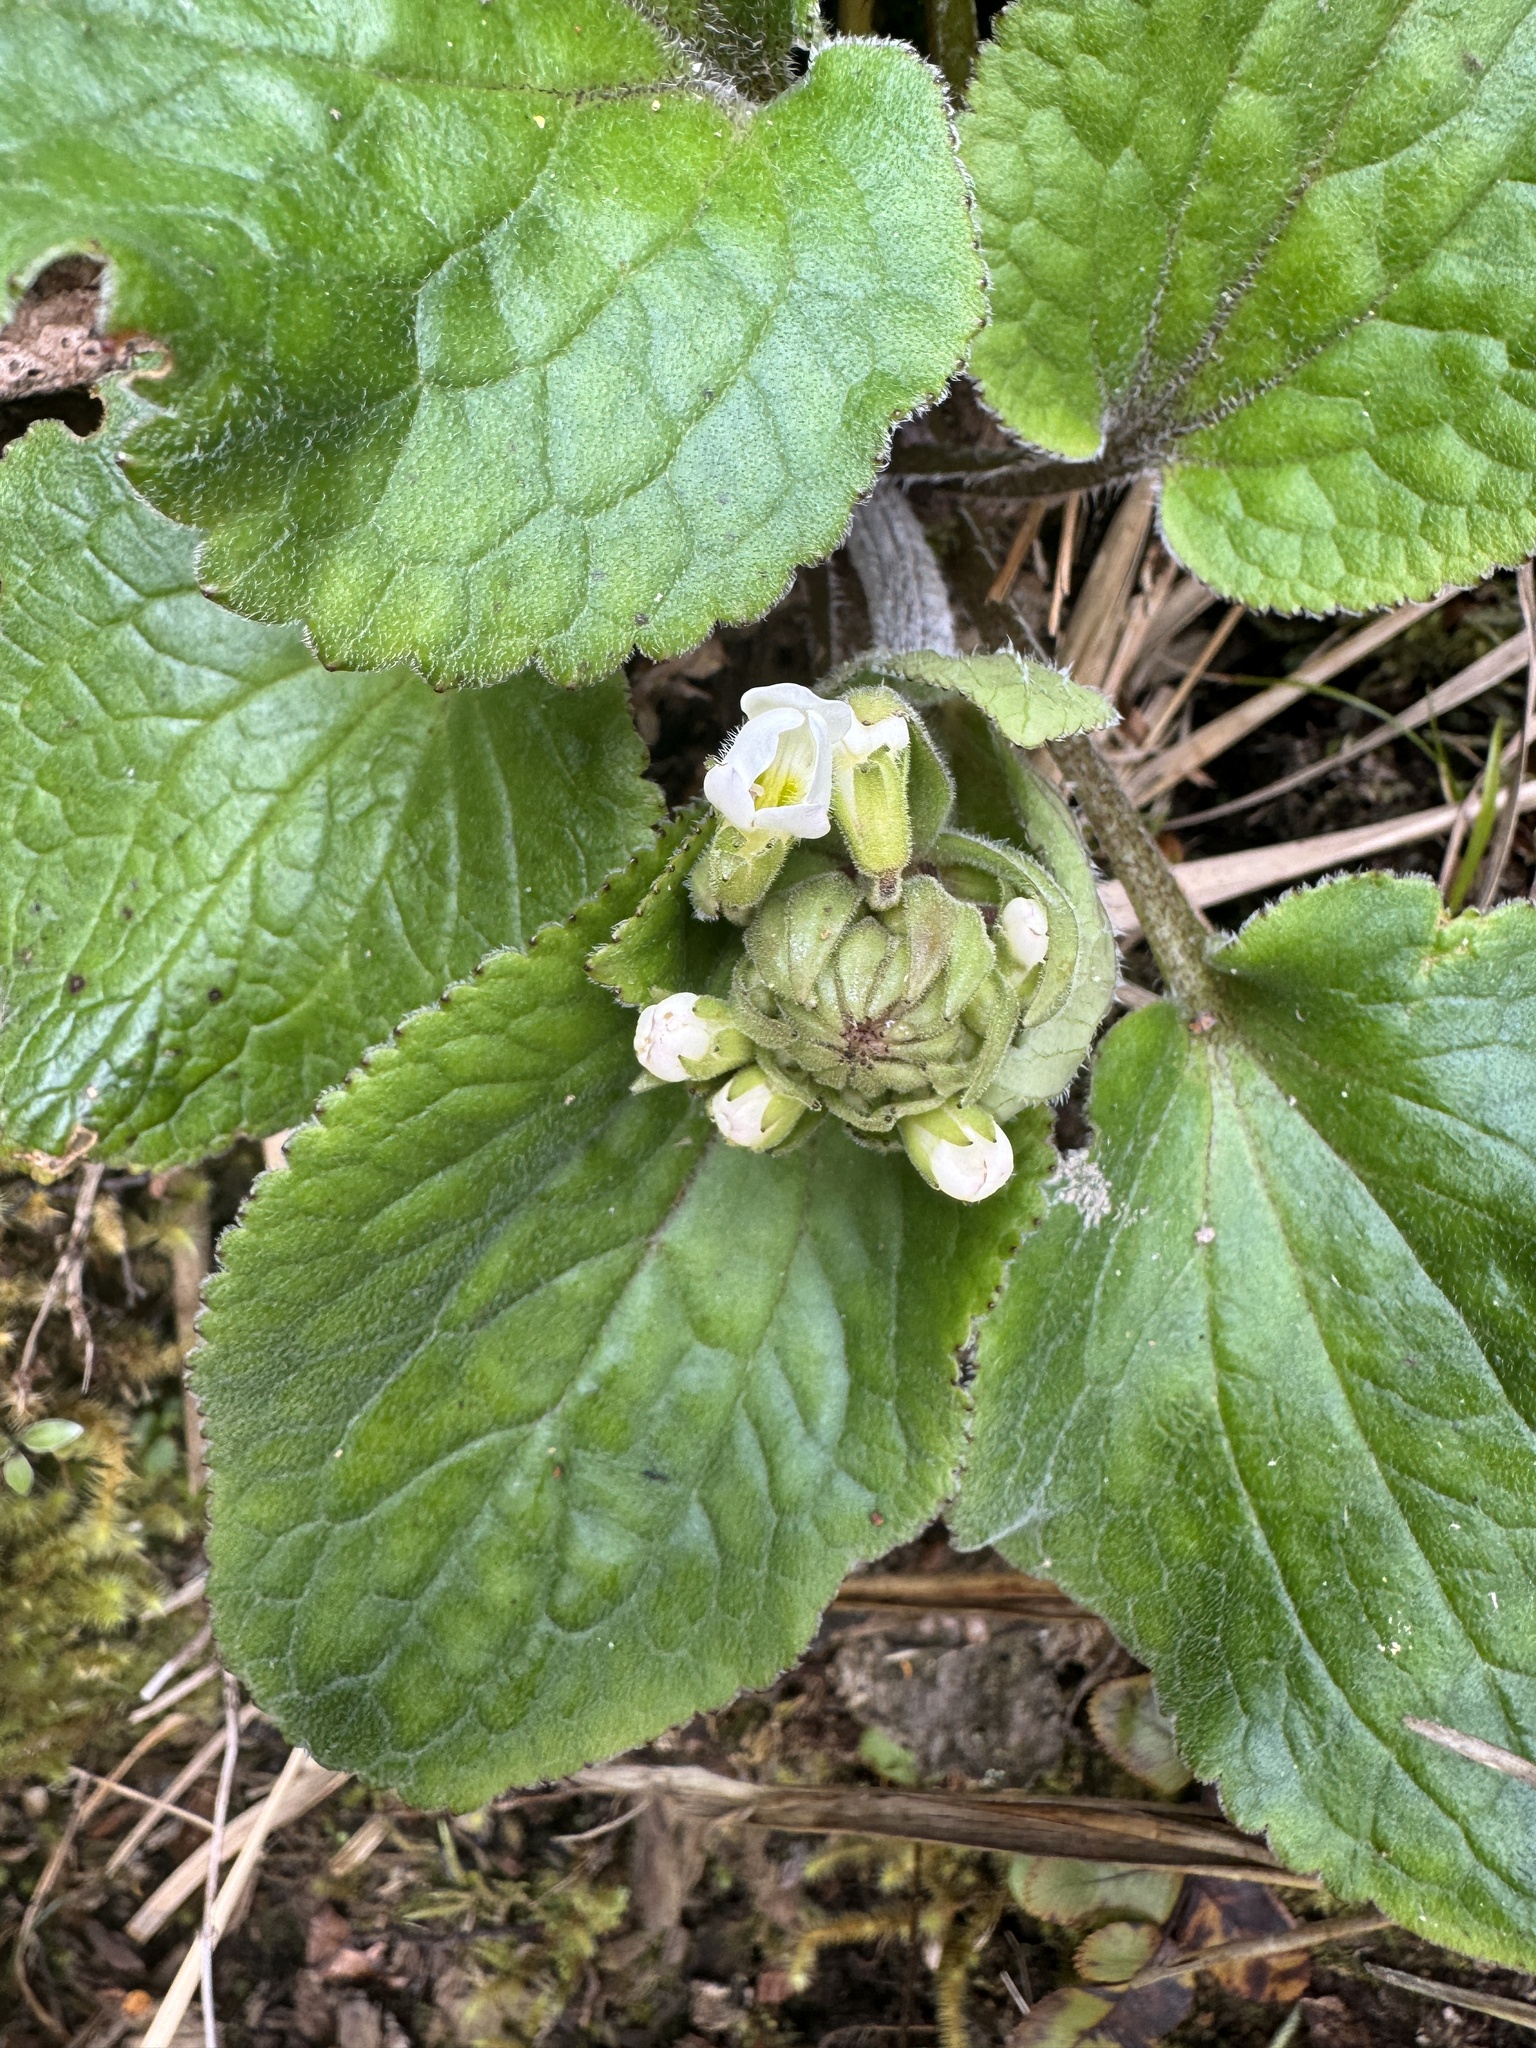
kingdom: Plantae
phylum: Tracheophyta
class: Magnoliopsida
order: Lamiales
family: Plantaginaceae
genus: Ourisia
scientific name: Ourisia macrophylla
